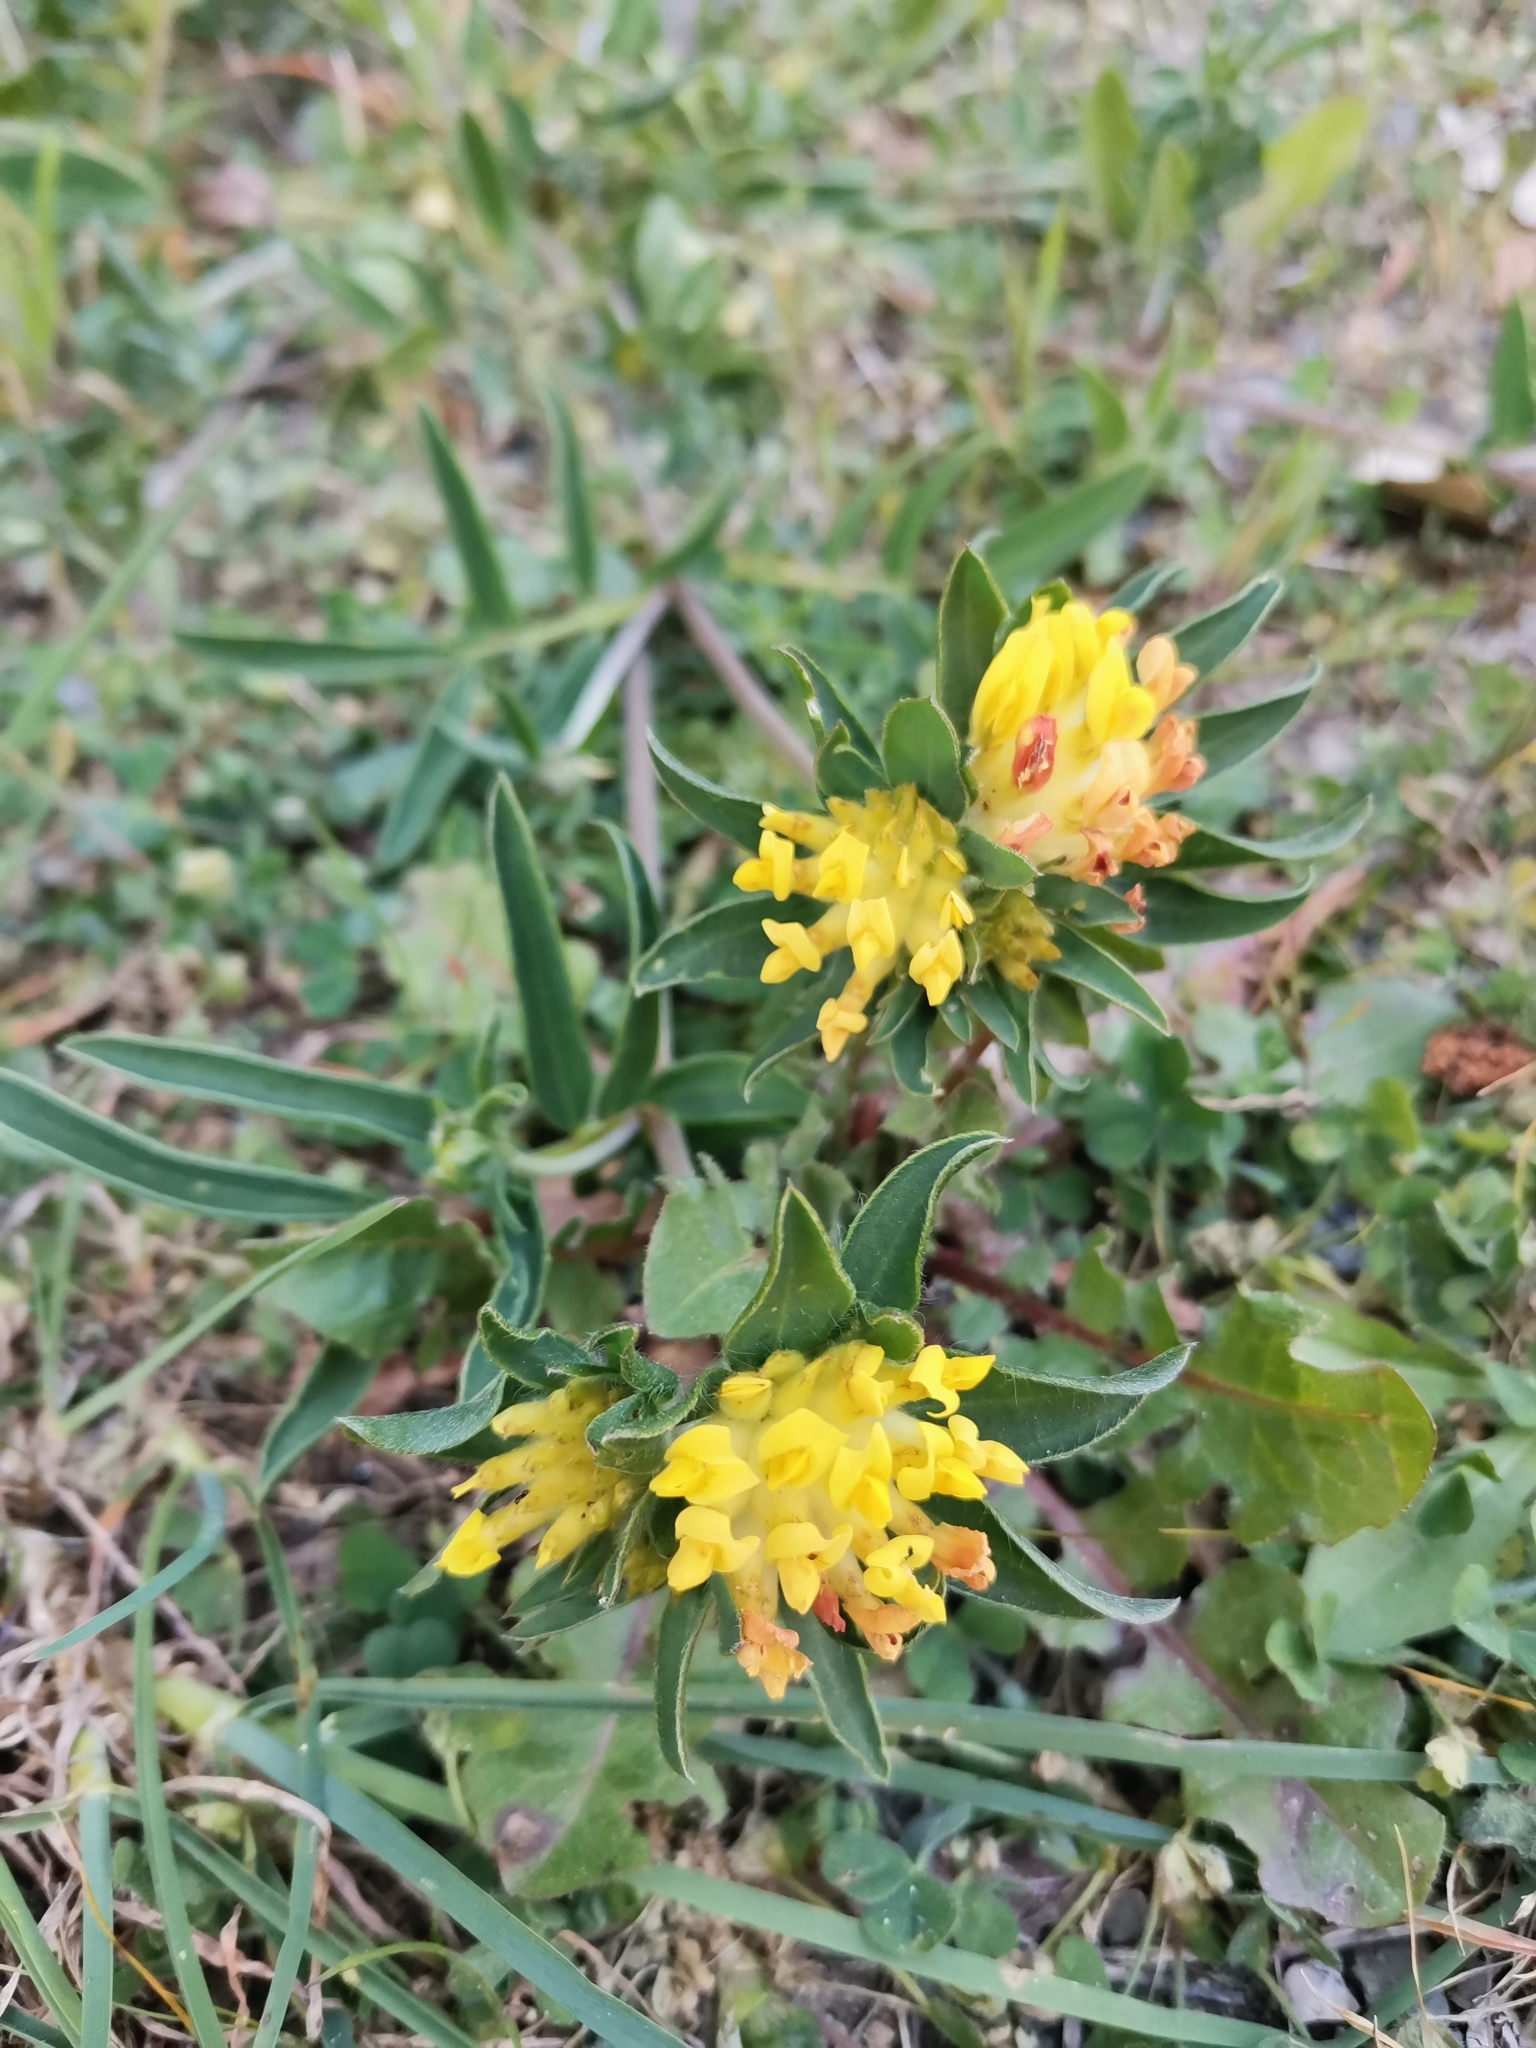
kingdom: Plantae
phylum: Tracheophyta
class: Magnoliopsida
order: Fabales
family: Fabaceae
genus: Anthyllis
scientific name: Anthyllis vulneraria
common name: Kidney vetch
